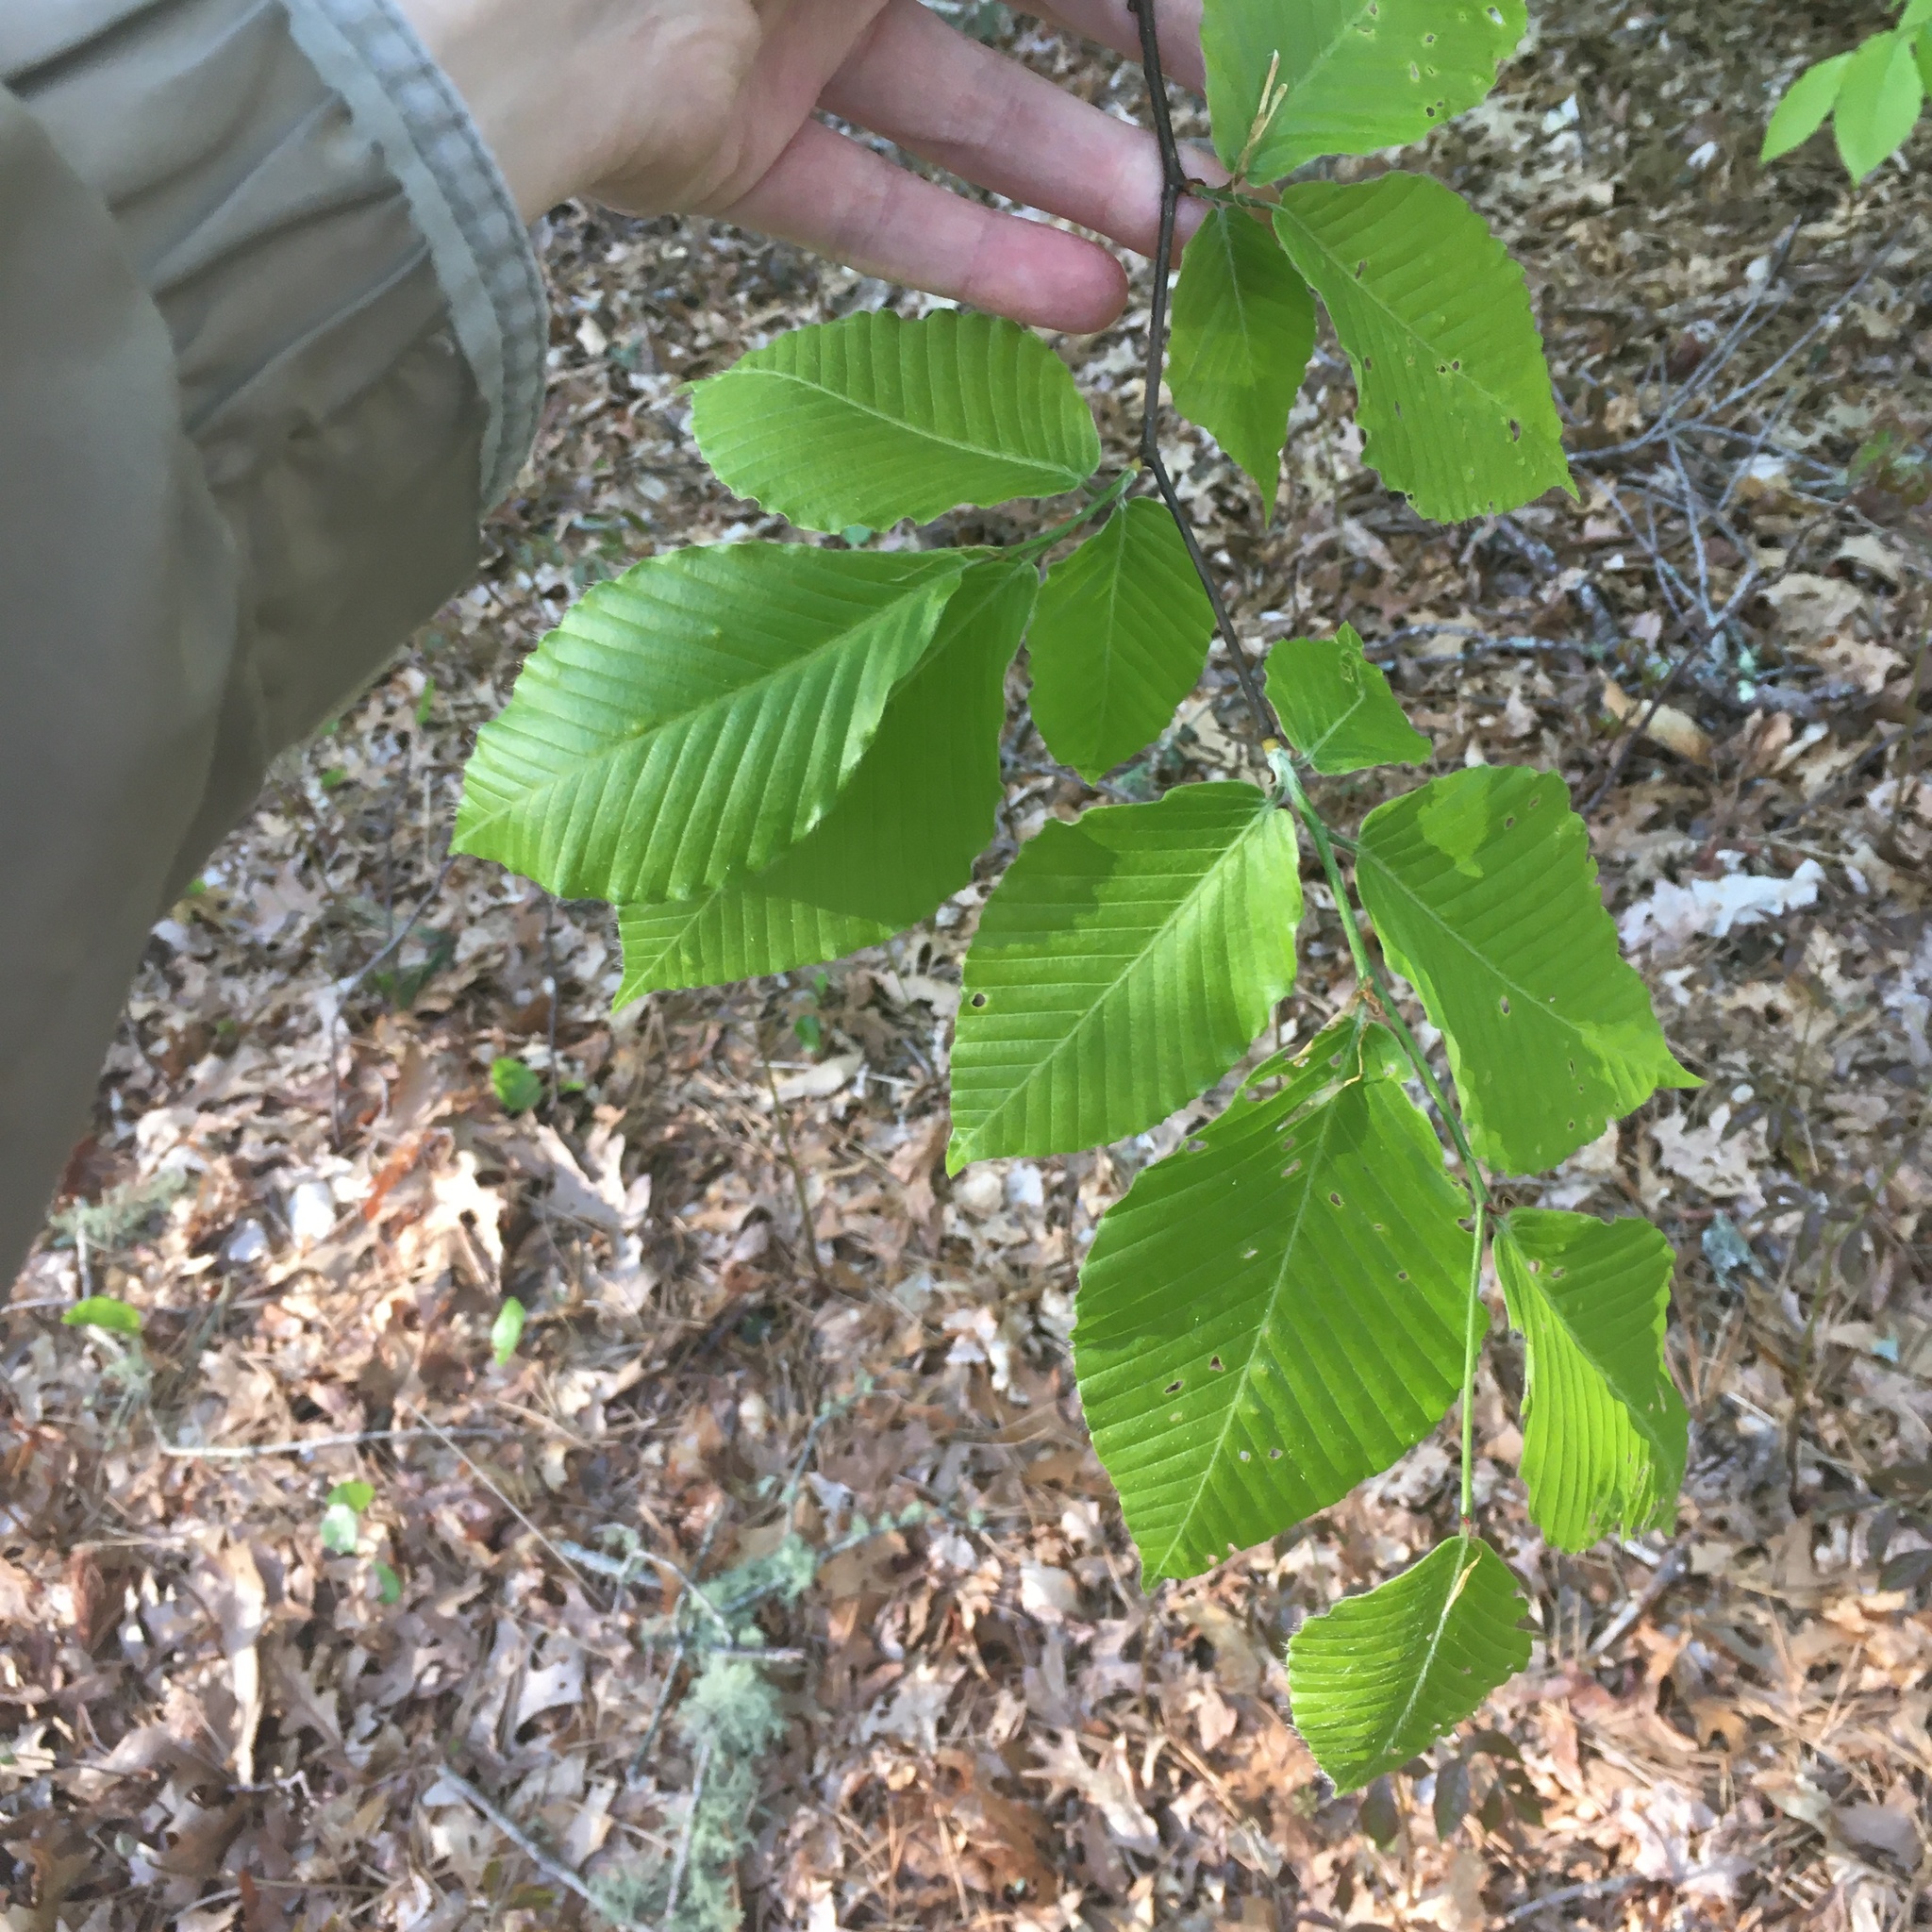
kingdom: Plantae
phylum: Tracheophyta
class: Magnoliopsida
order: Fagales
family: Fagaceae
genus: Fagus
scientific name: Fagus grandifolia
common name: American beech
